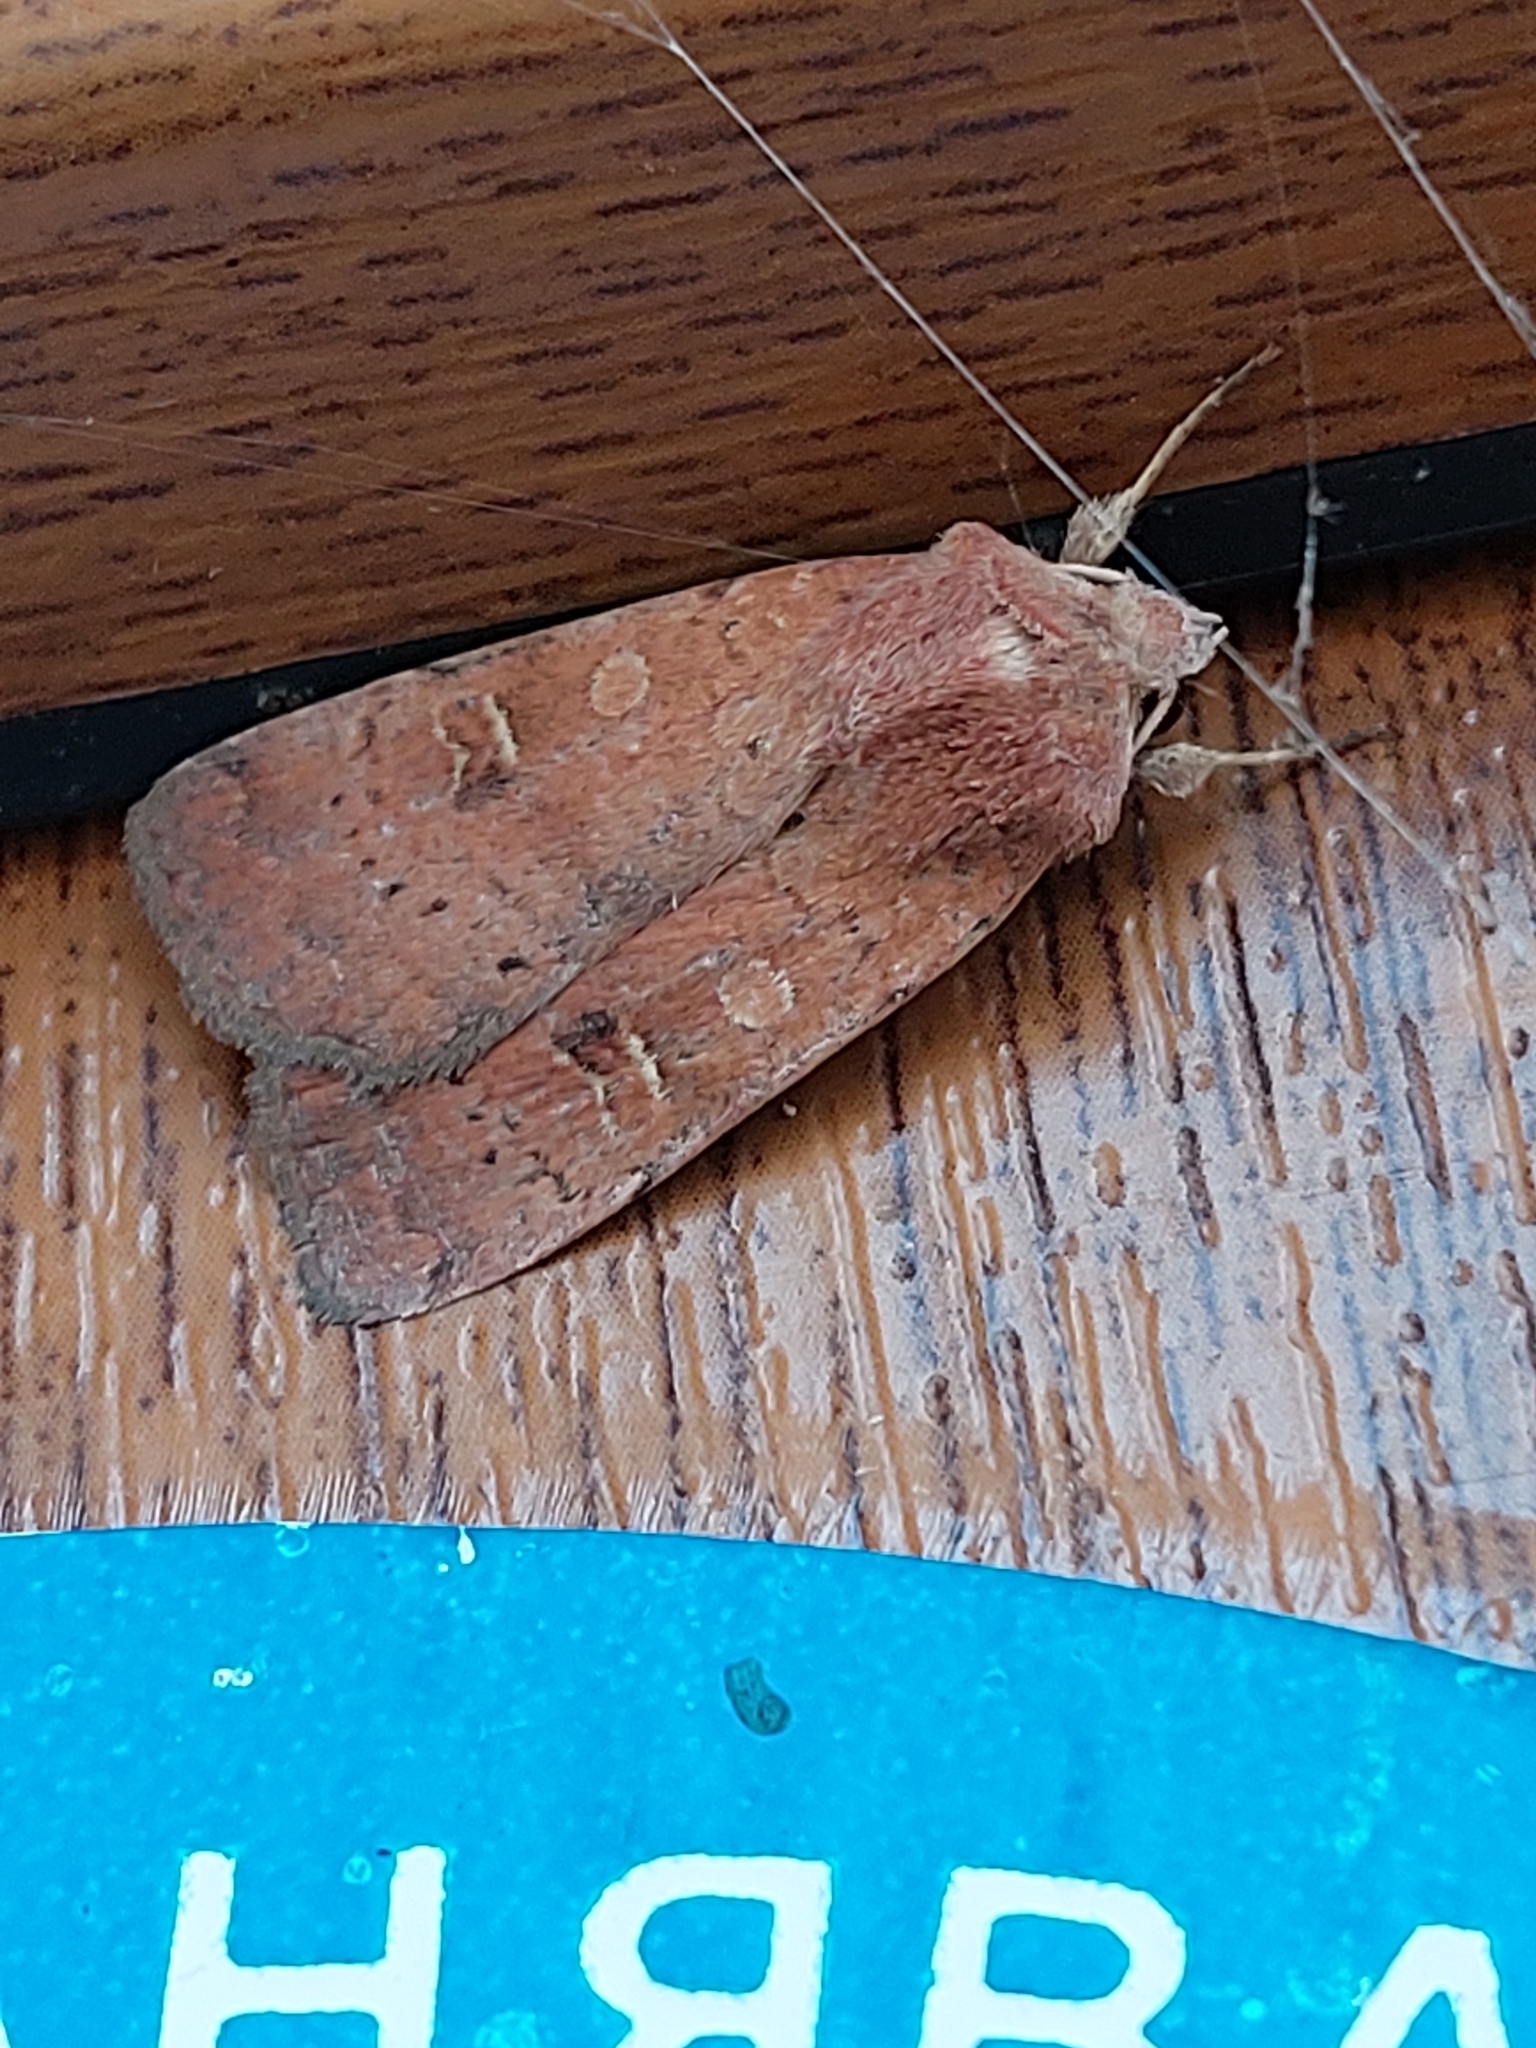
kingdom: Animalia
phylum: Arthropoda
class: Insecta
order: Lepidoptera
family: Noctuidae
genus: Xestia
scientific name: Xestia xanthographa
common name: Square-spot rustic
